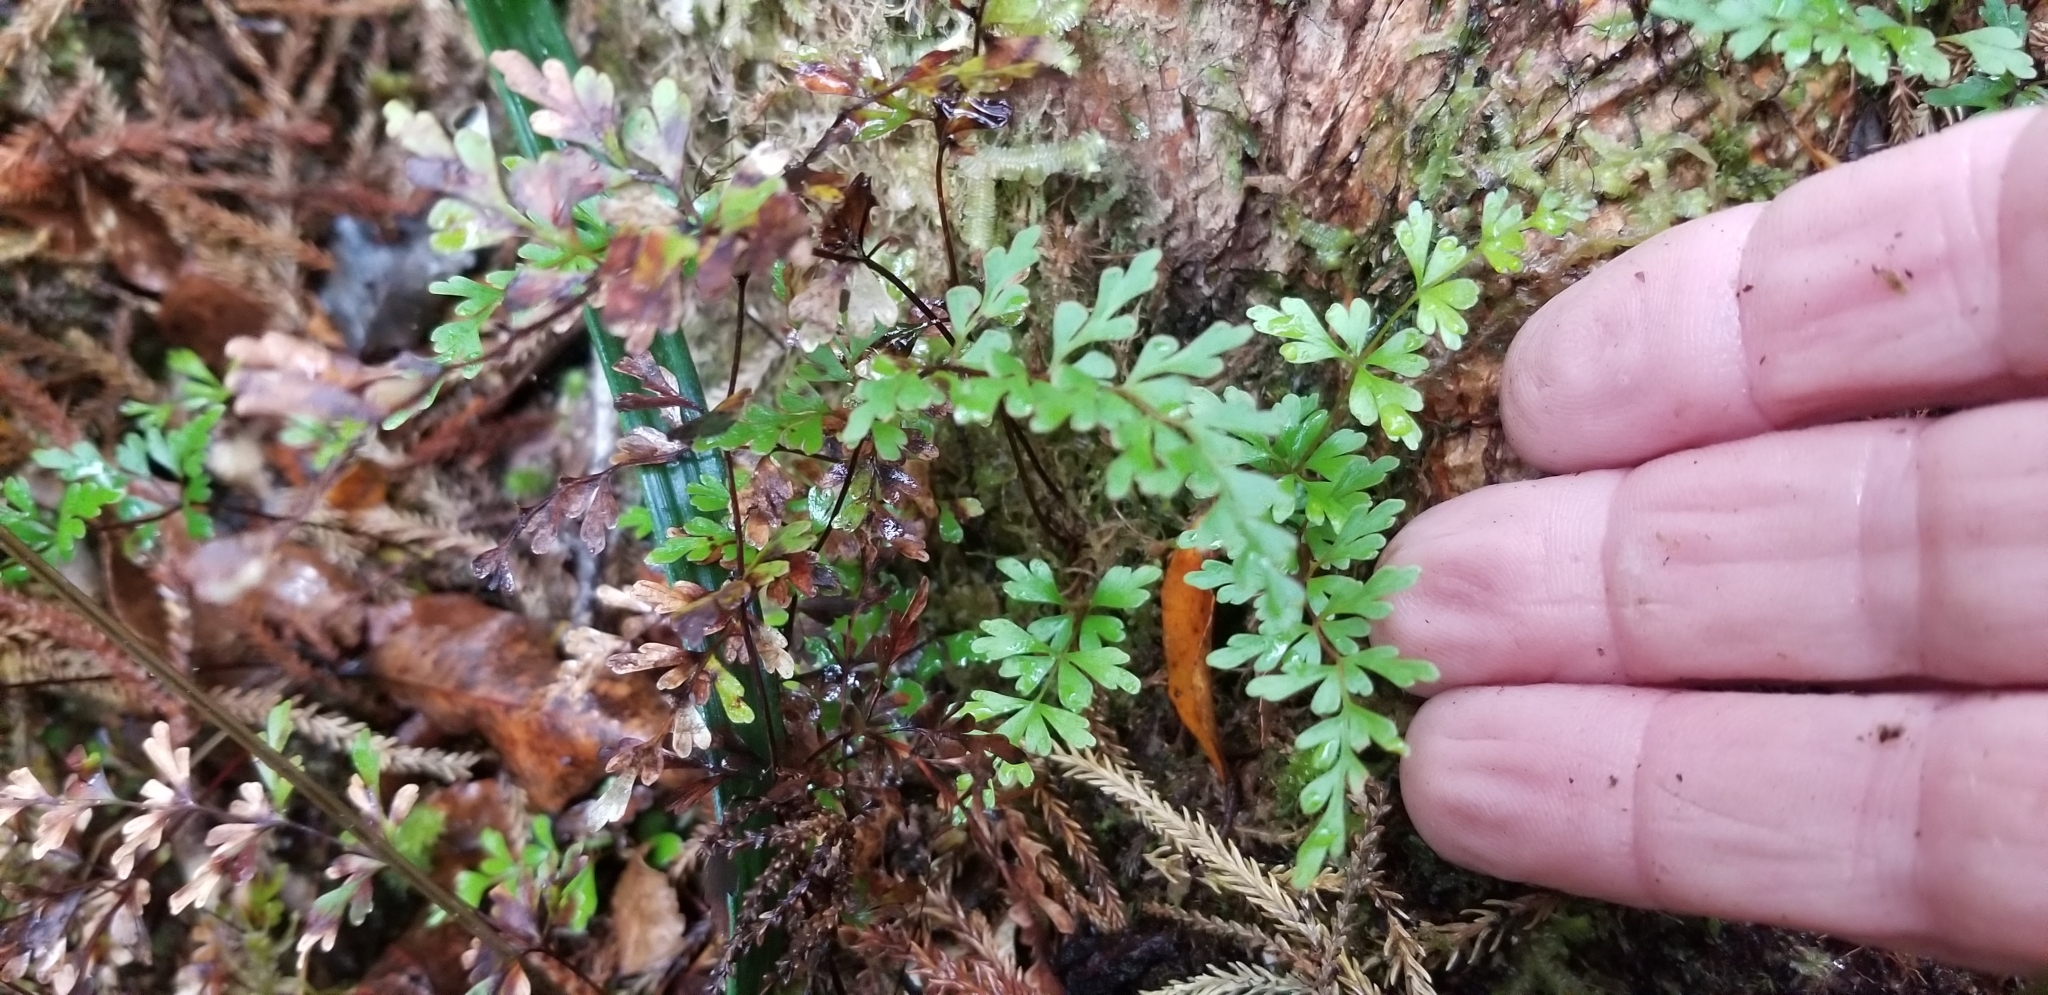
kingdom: Plantae
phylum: Tracheophyta
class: Polypodiopsida
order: Polypodiales
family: Lindsaeaceae
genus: Lindsaea
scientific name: Lindsaea trichomanoides
